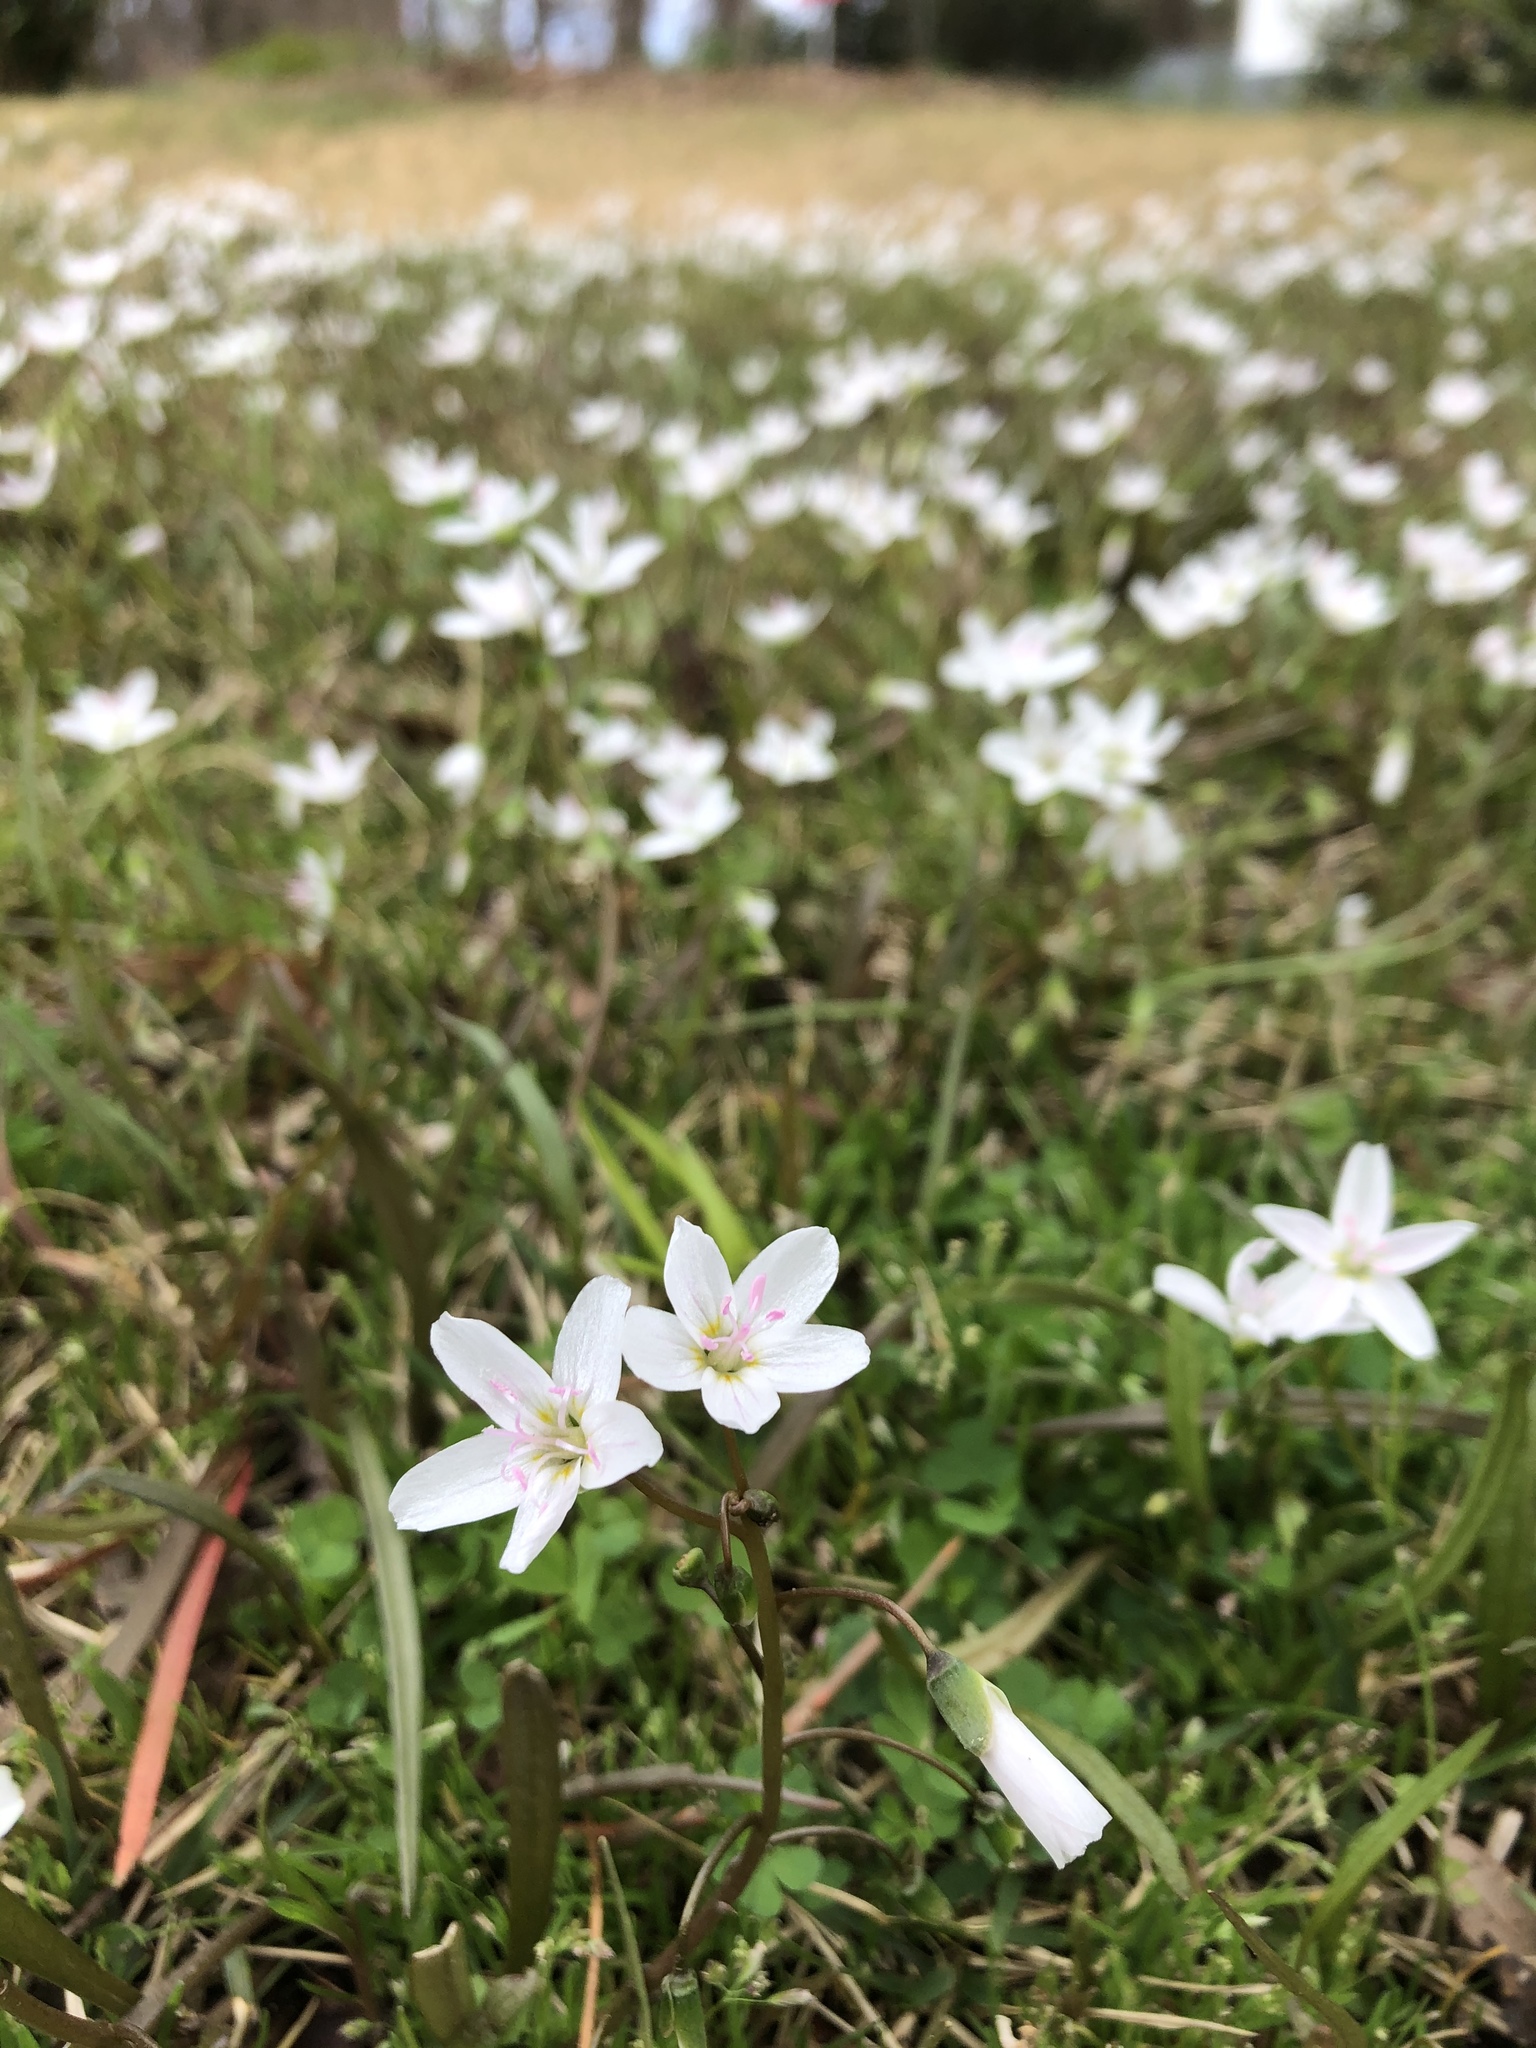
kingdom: Plantae
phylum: Tracheophyta
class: Magnoliopsida
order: Caryophyllales
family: Montiaceae
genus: Claytonia
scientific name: Claytonia virginica
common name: Virginia springbeauty
